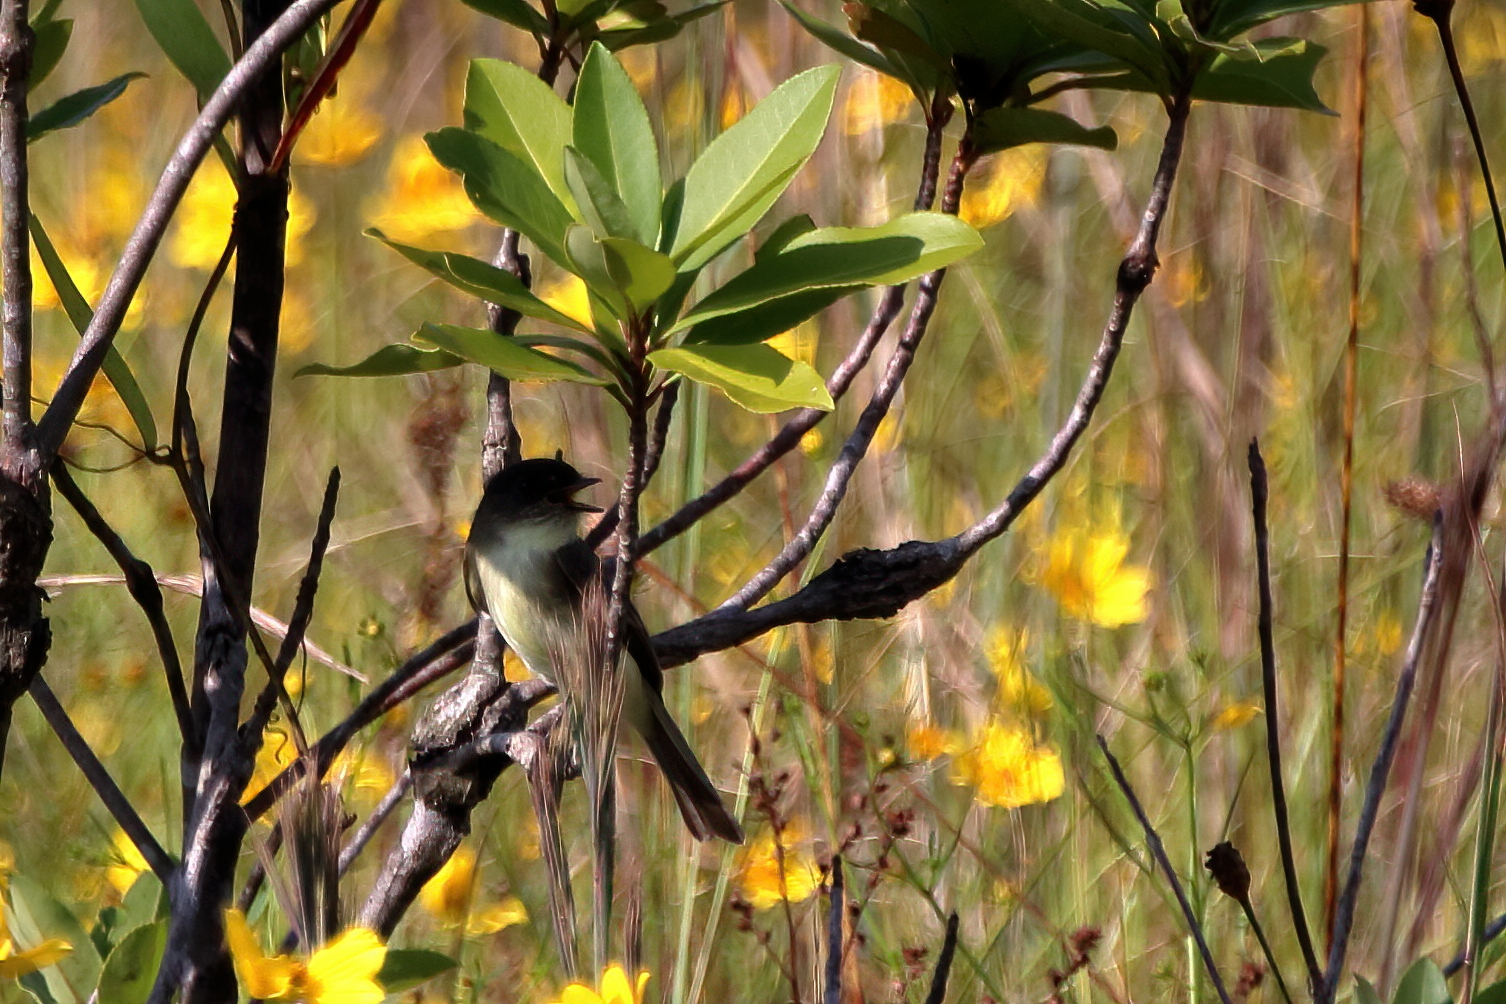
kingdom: Animalia
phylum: Chordata
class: Aves
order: Passeriformes
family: Tyrannidae
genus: Sayornis
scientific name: Sayornis phoebe
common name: Eastern phoebe
